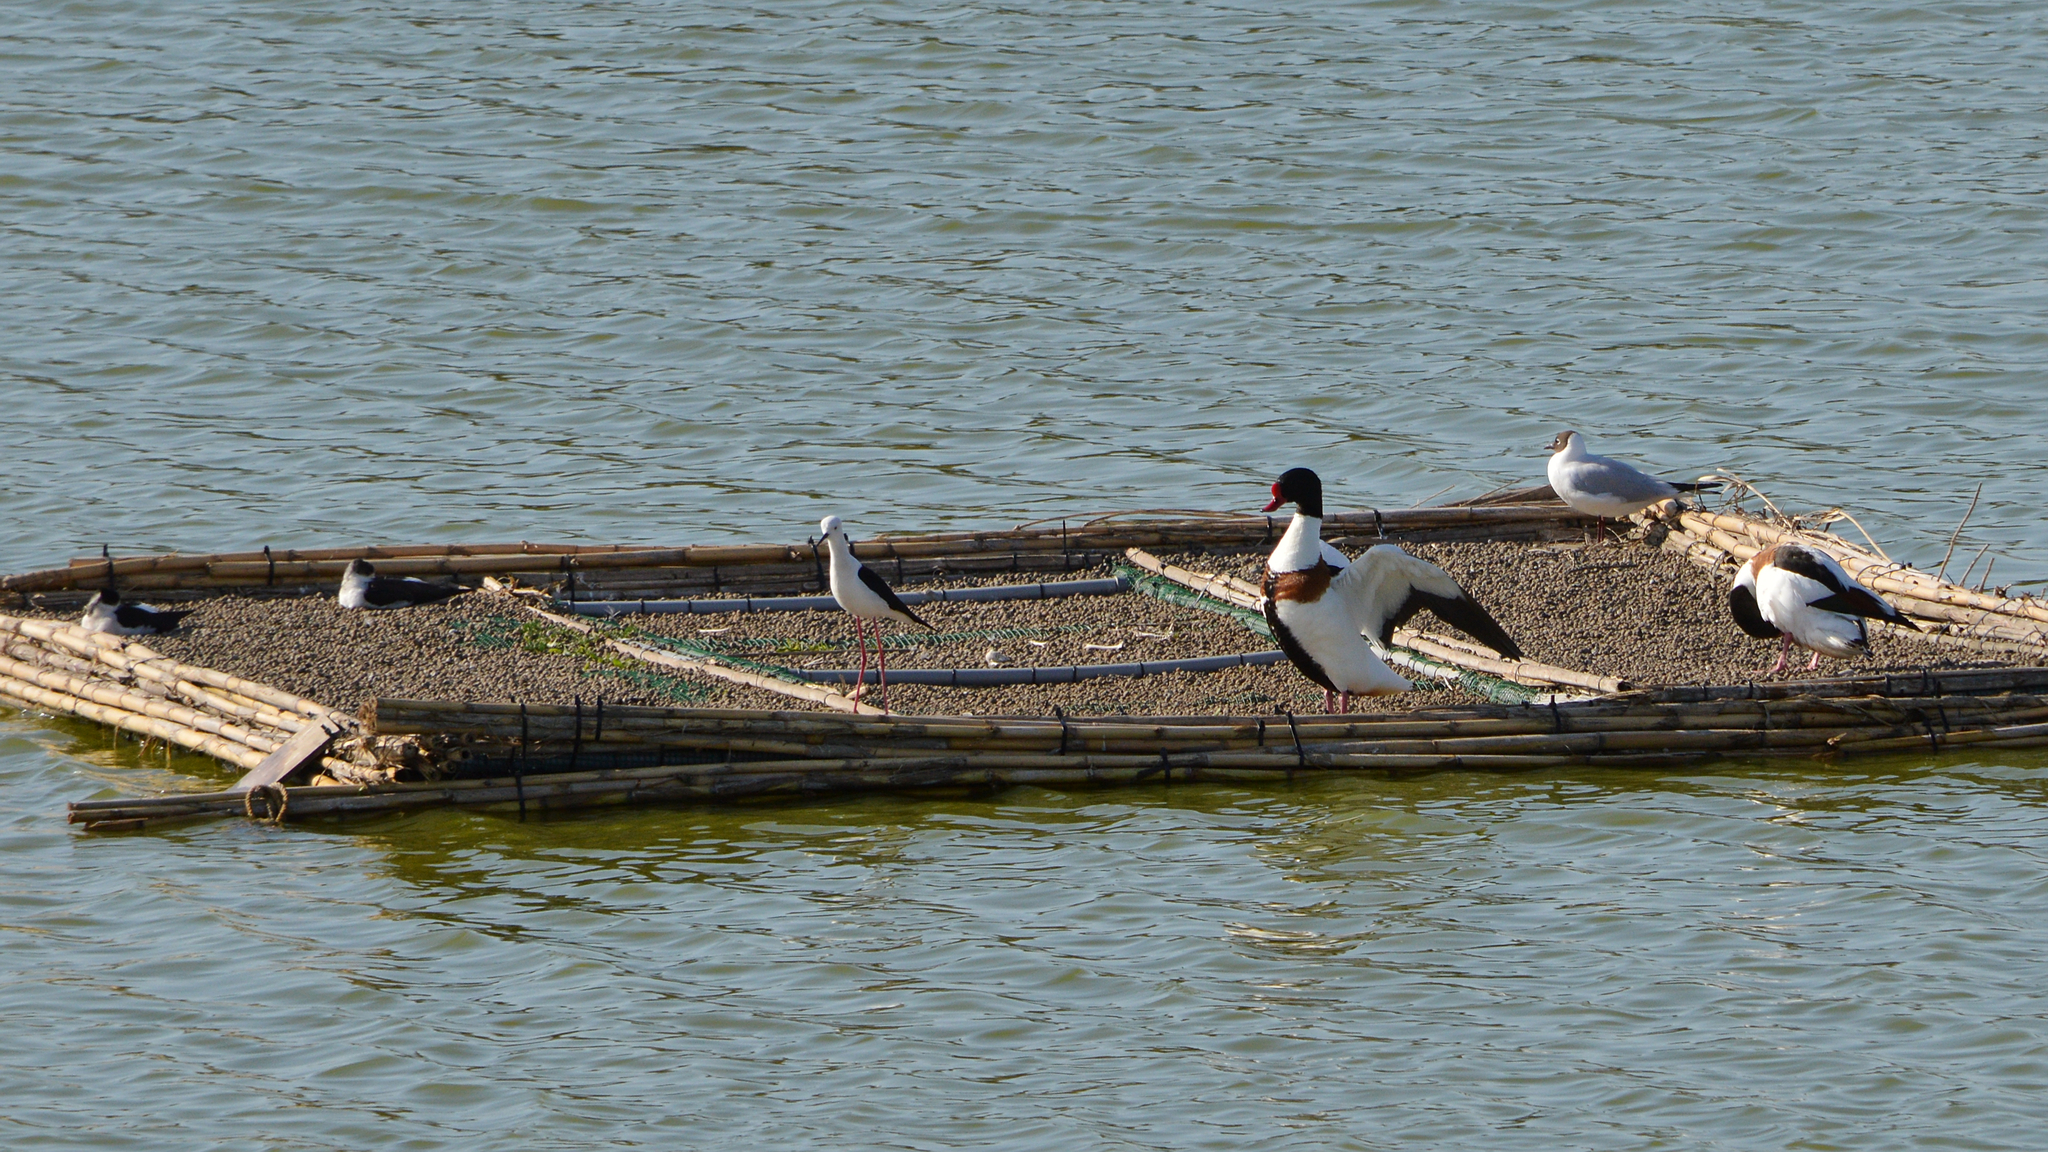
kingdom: Animalia
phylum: Chordata
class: Aves
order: Charadriiformes
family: Recurvirostridae
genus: Himantopus
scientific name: Himantopus himantopus
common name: Black-winged stilt
